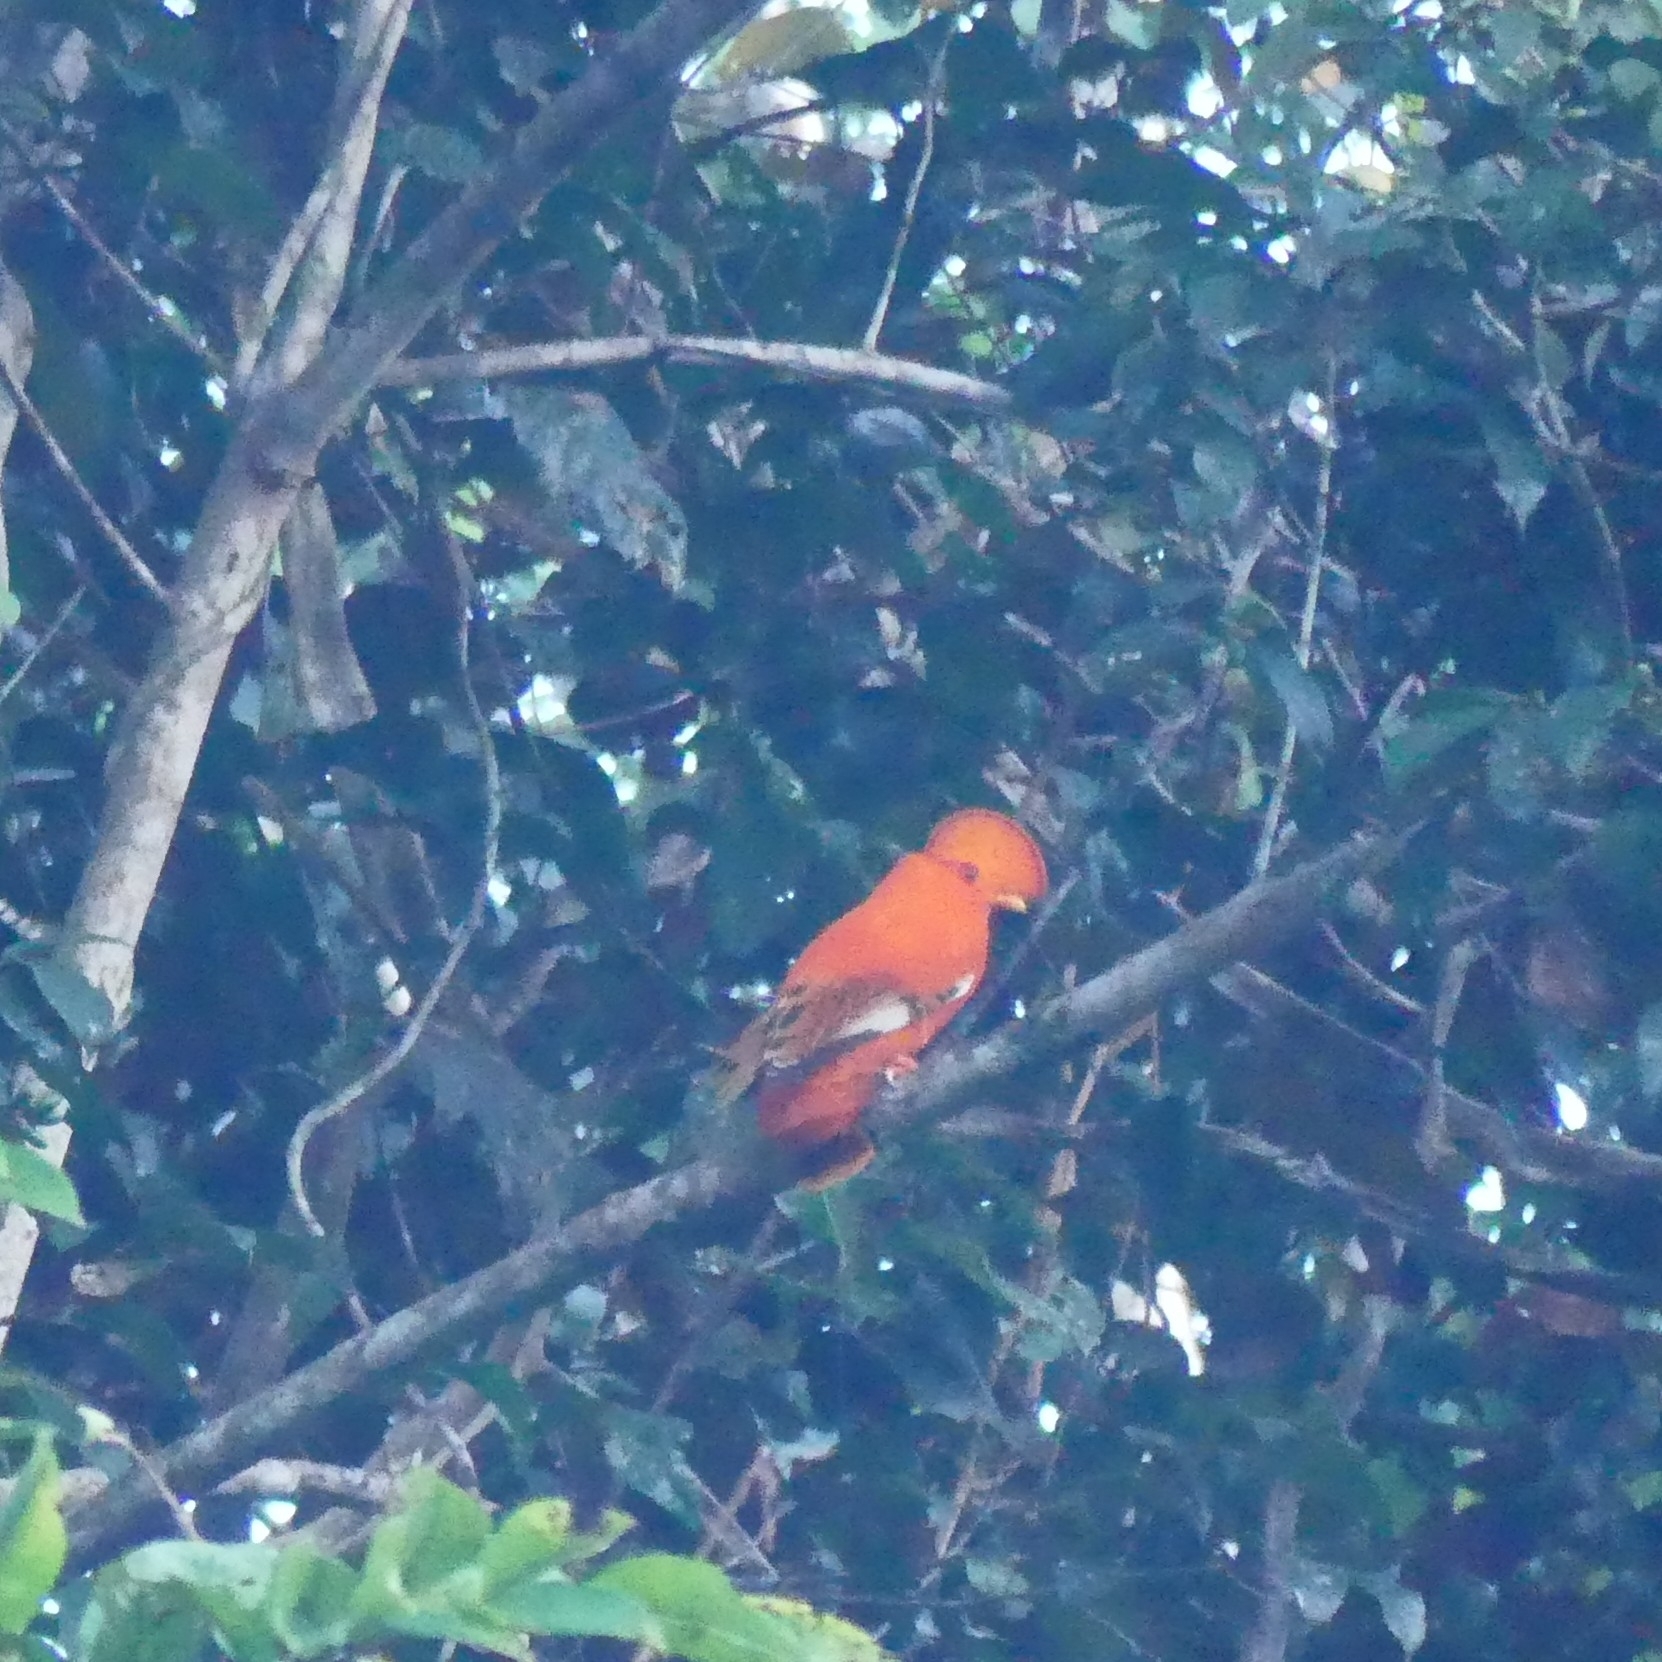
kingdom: Animalia
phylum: Chordata
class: Aves
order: Passeriformes
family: Cotingidae
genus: Rupicola
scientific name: Rupicola rupicola
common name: Guianan cock-of-the-rock
